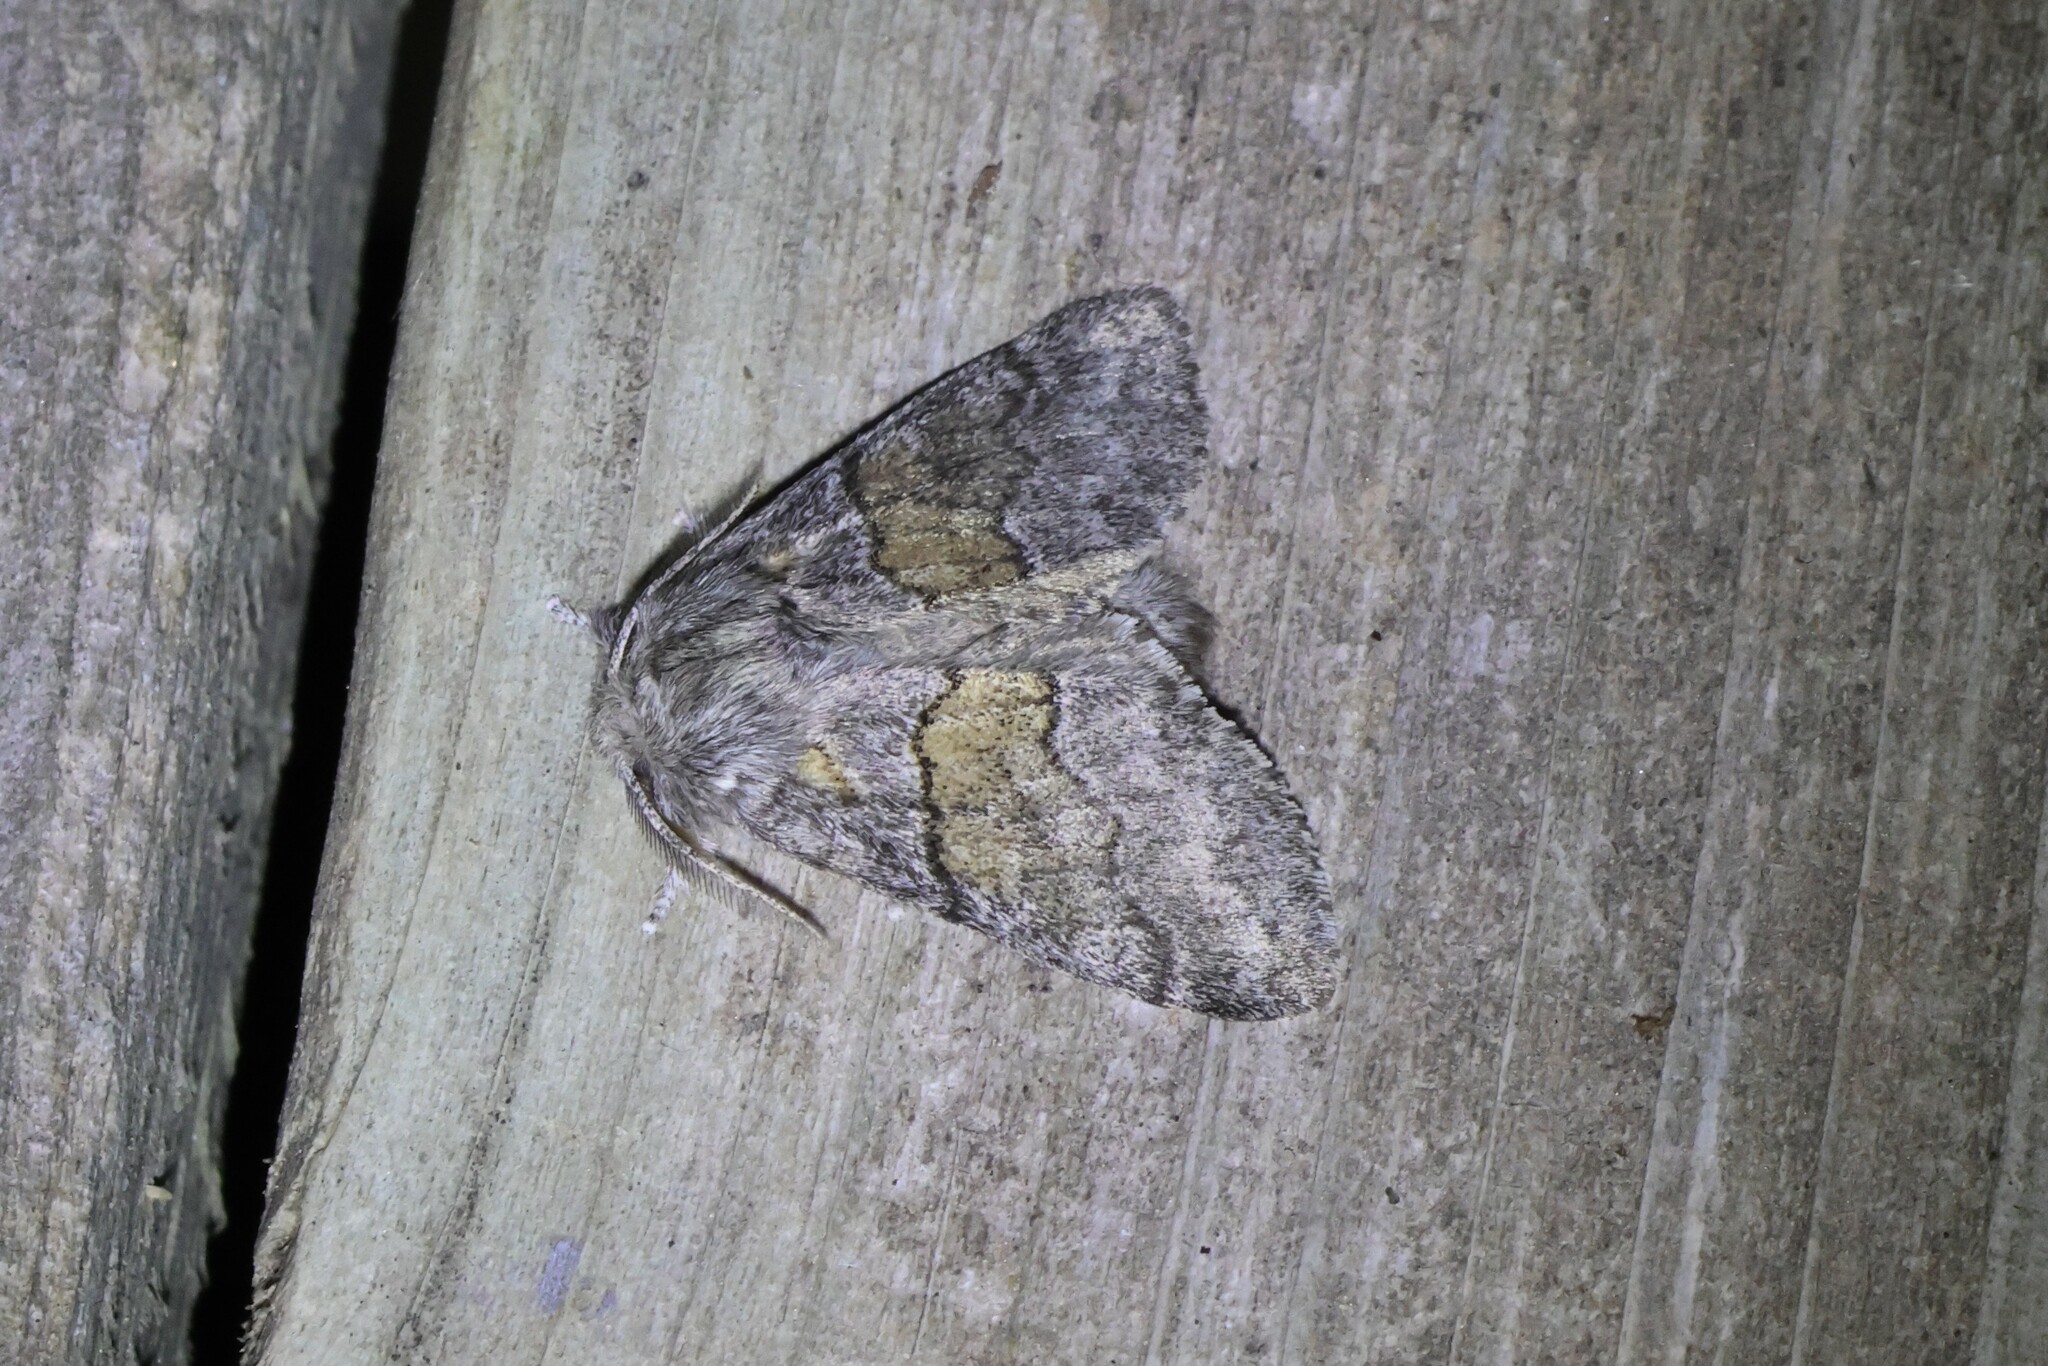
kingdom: Animalia
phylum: Arthropoda
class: Insecta
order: Lepidoptera
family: Notodontidae
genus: Gluphisia
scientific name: Gluphisia septentrionis
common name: Common gluphisia
